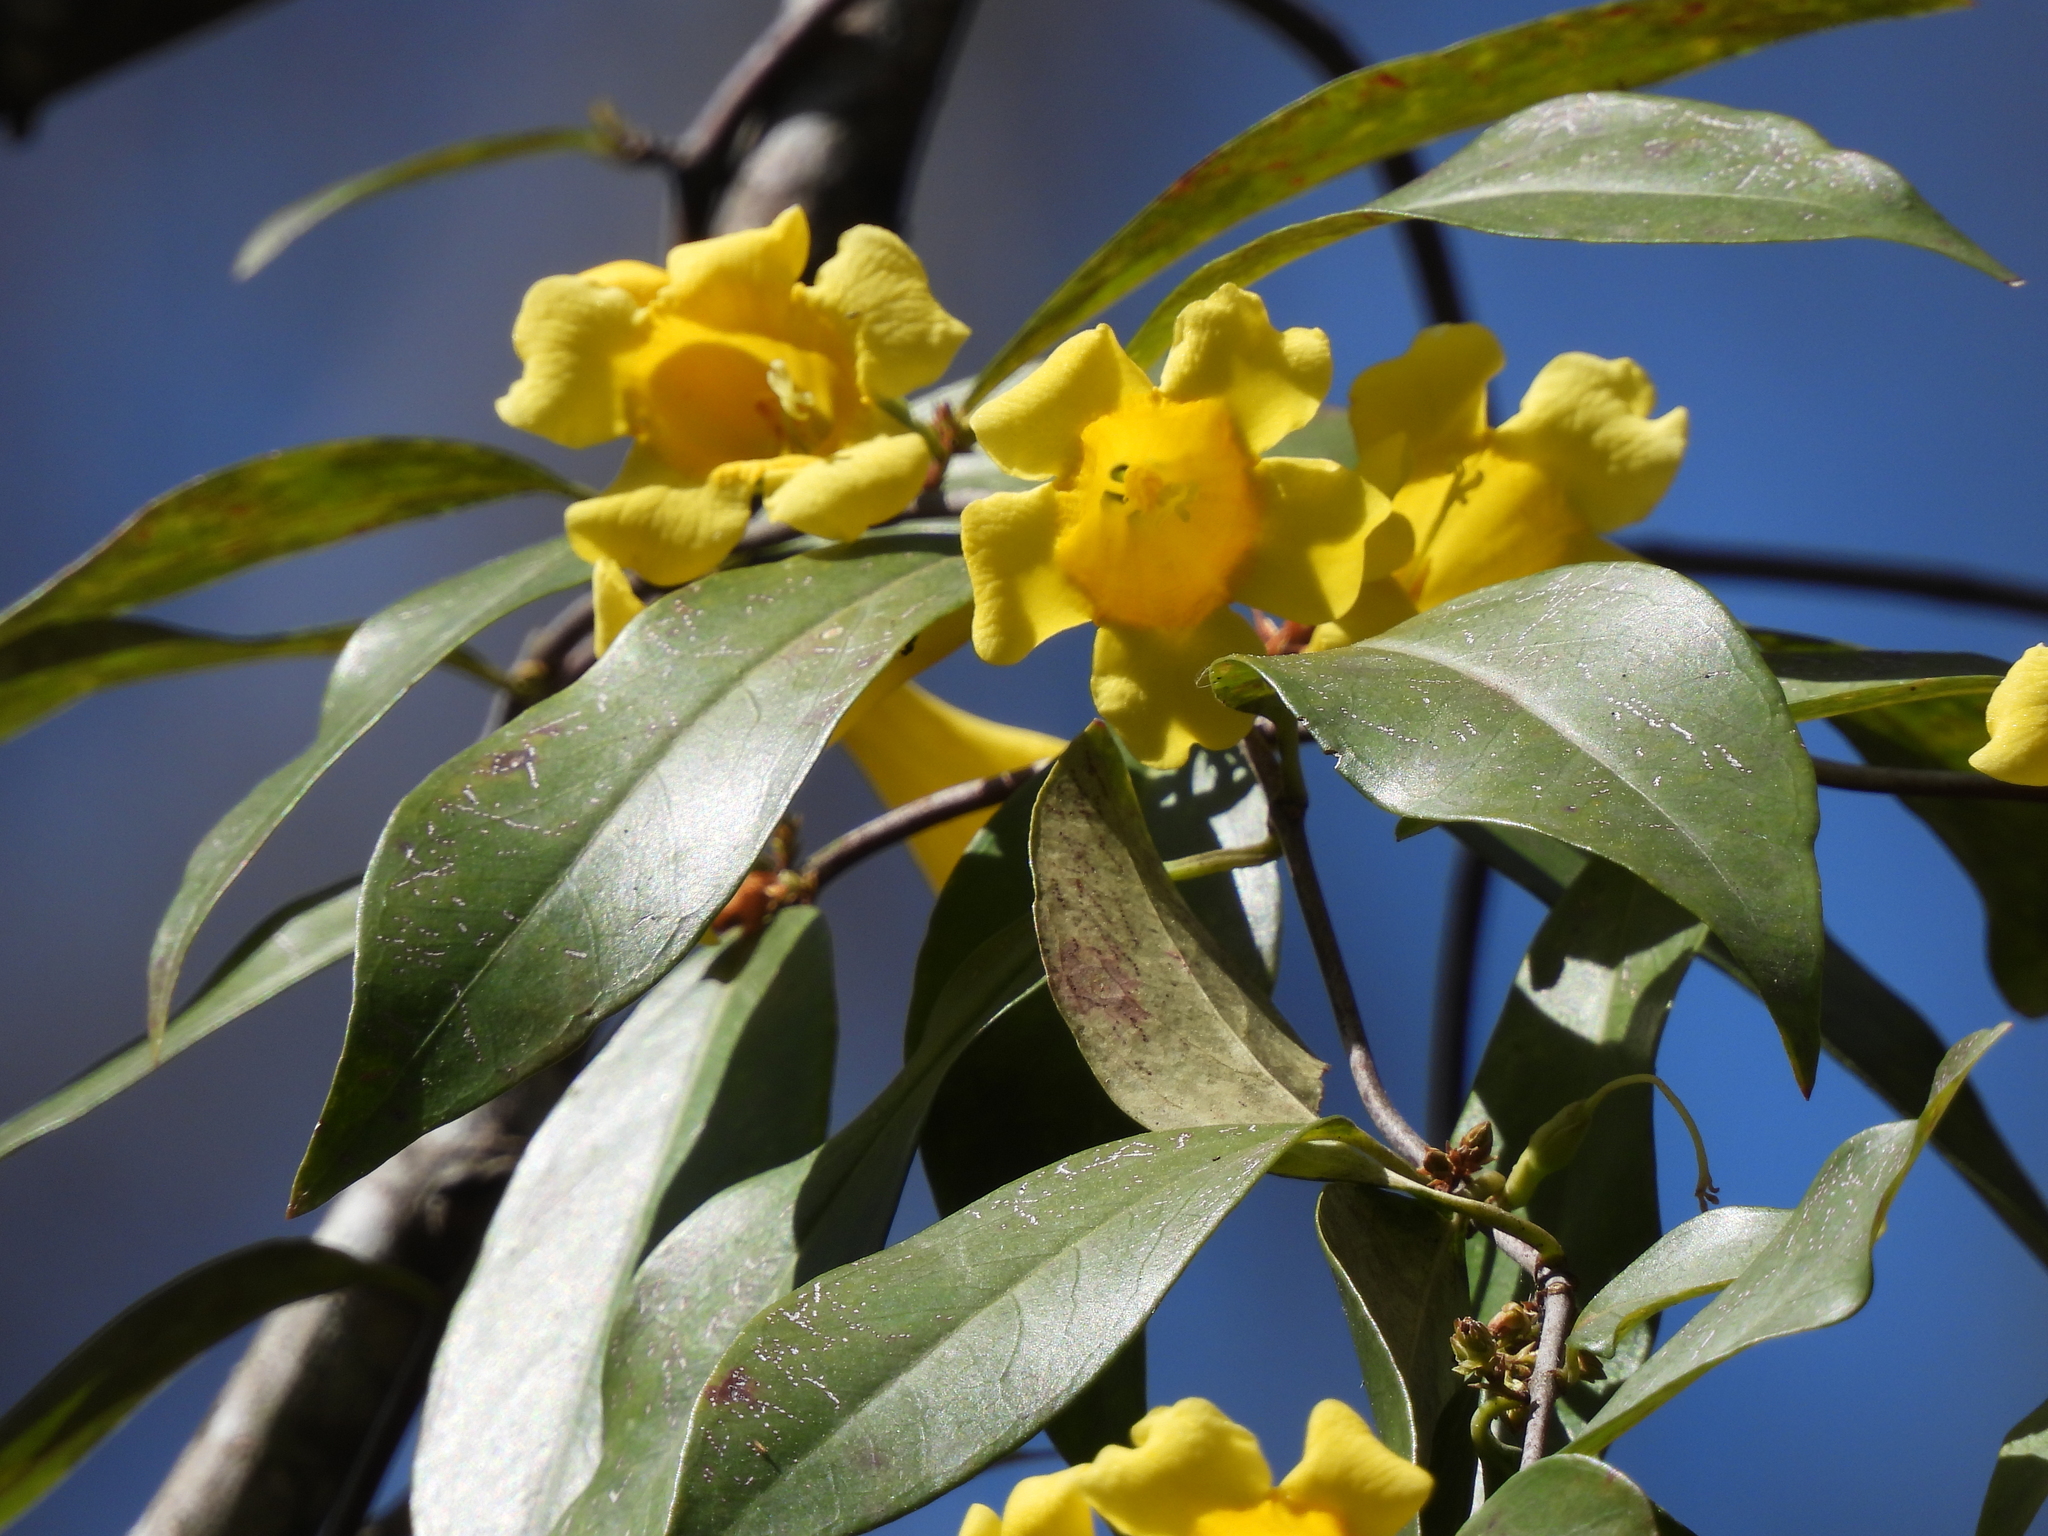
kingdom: Plantae
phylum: Tracheophyta
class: Magnoliopsida
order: Gentianales
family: Gelsemiaceae
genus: Gelsemium
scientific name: Gelsemium sempervirens
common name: Carolina-jasmine
